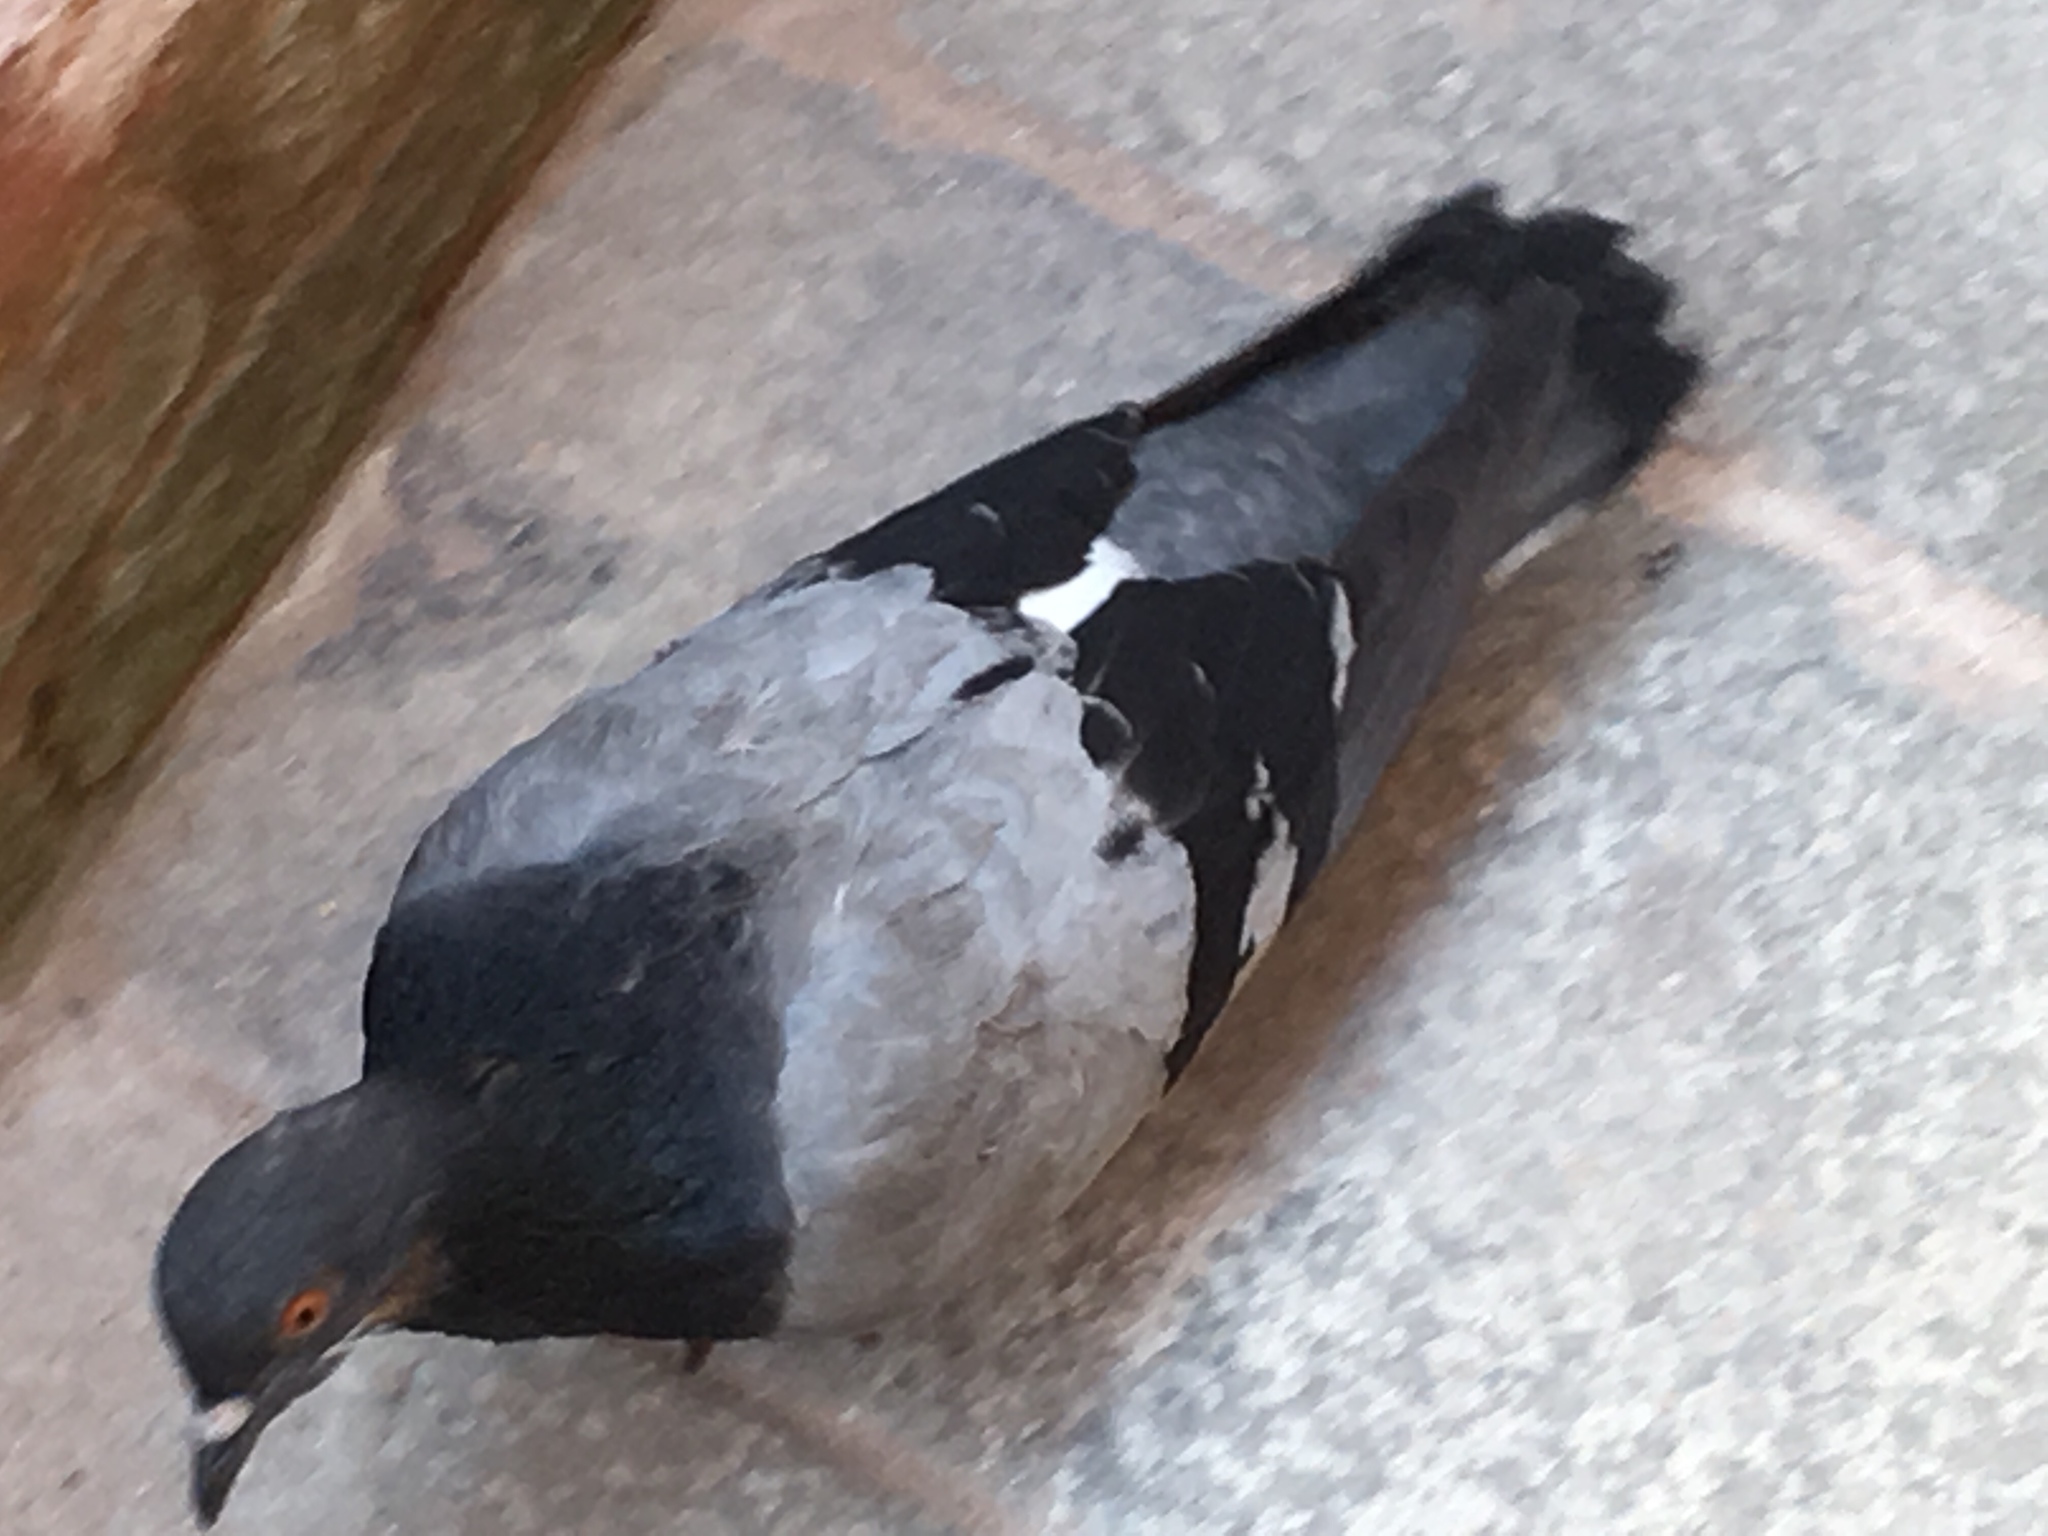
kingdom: Animalia
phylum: Chordata
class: Aves
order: Columbiformes
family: Columbidae
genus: Columba
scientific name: Columba livia
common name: Rock pigeon
